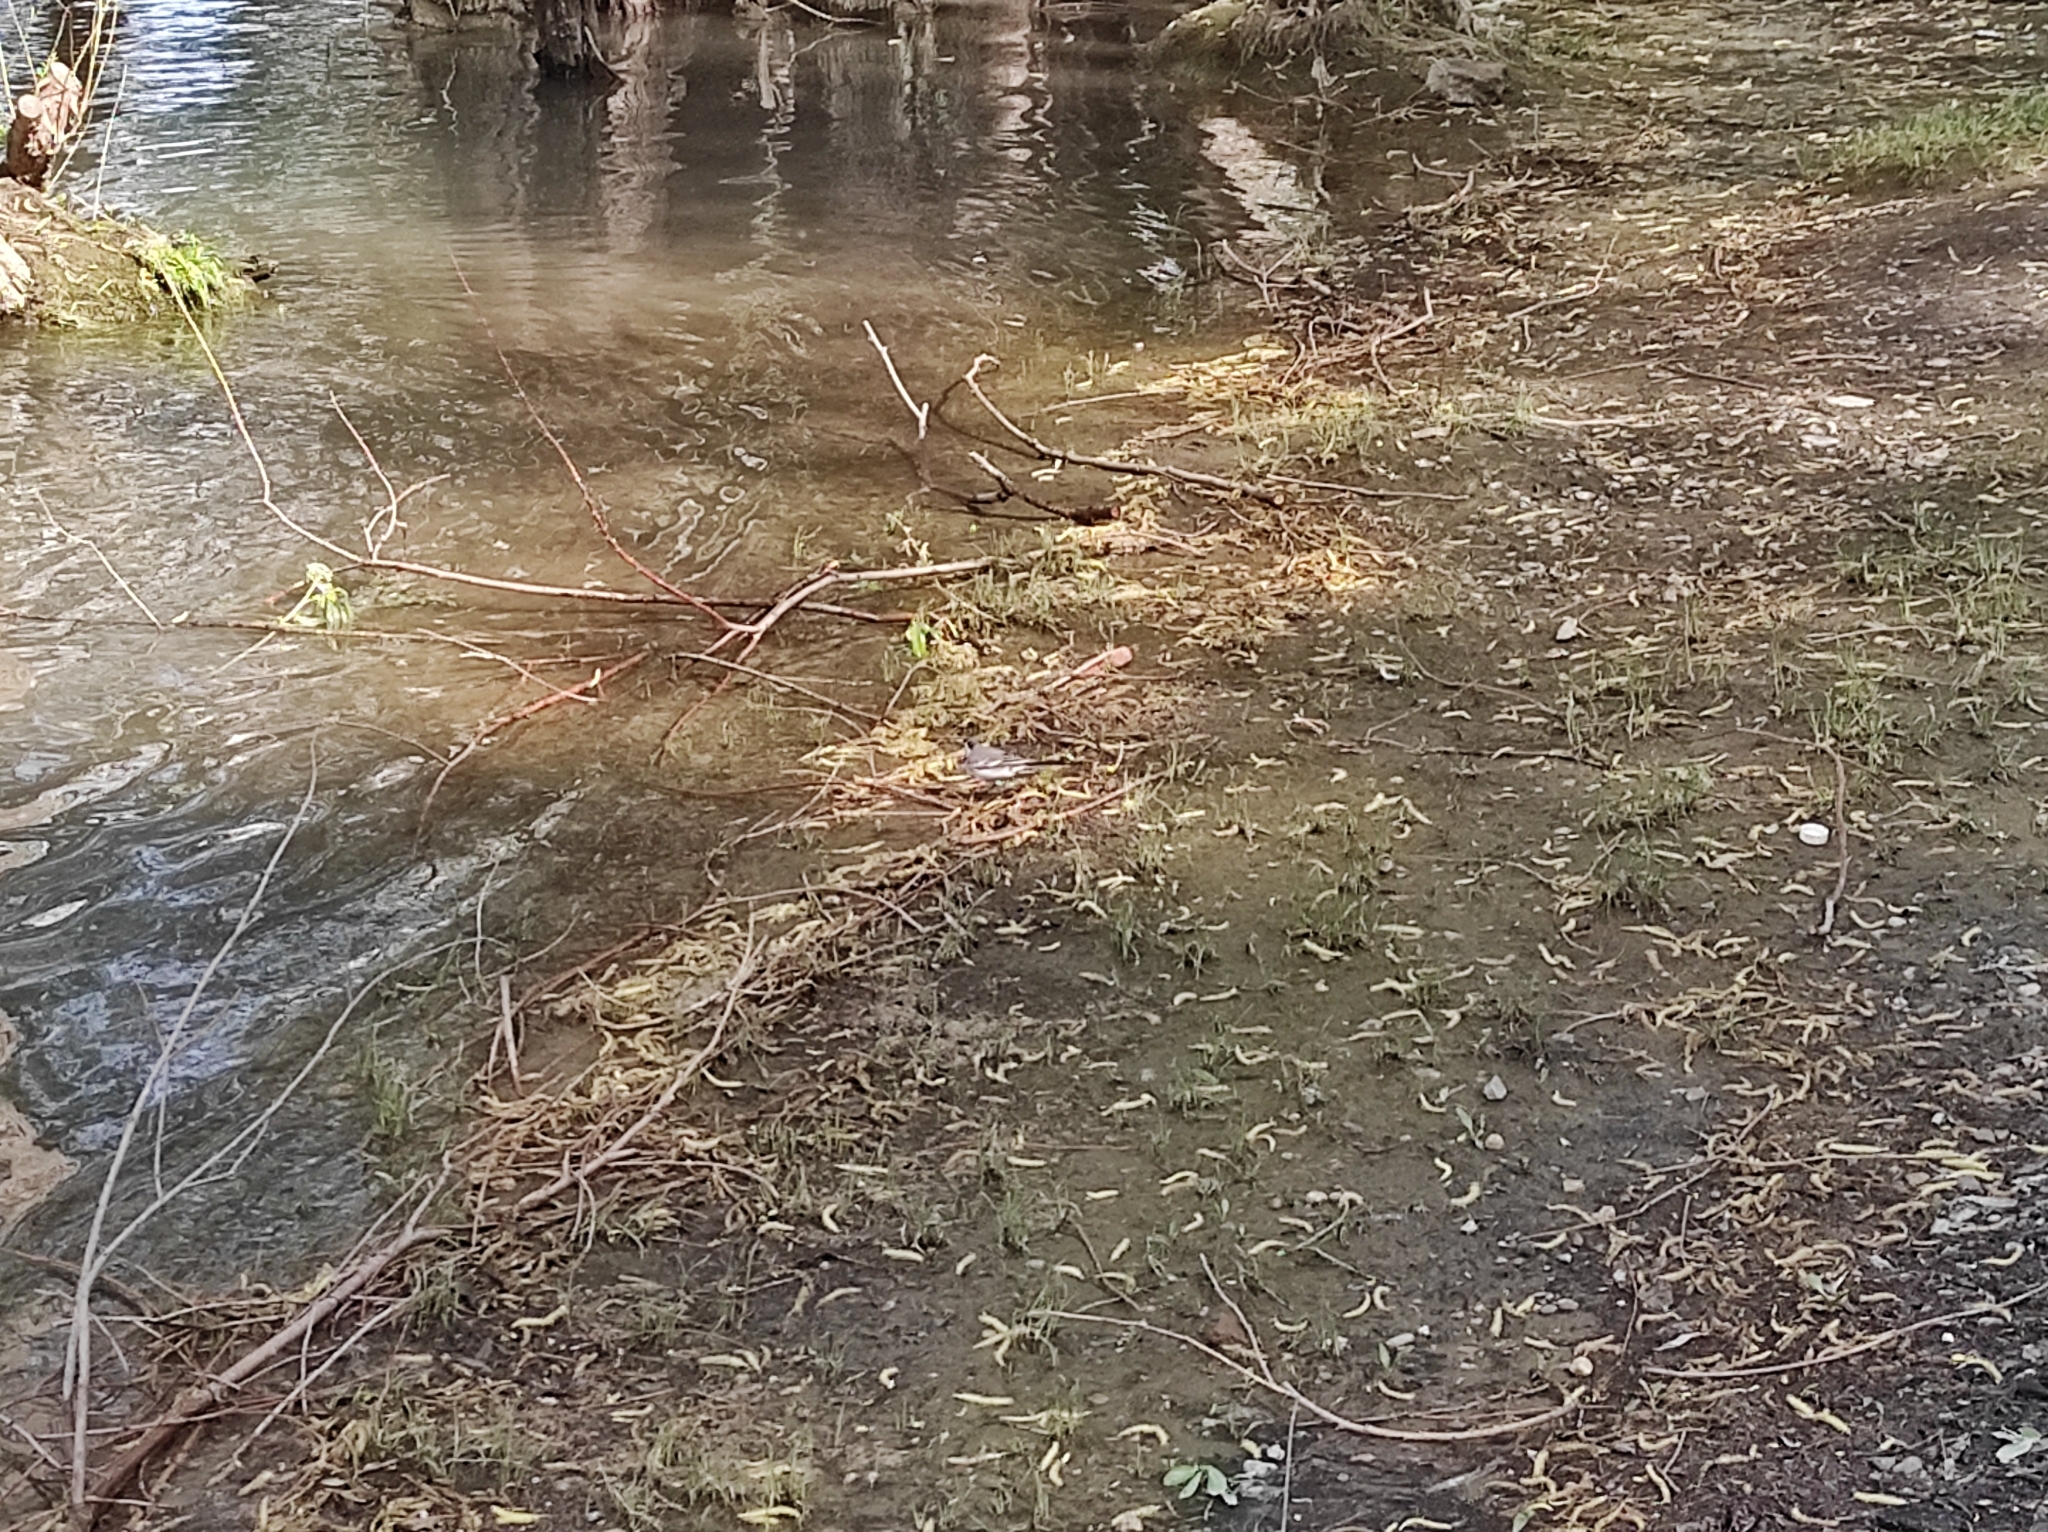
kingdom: Animalia
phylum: Chordata
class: Aves
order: Passeriformes
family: Motacillidae
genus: Motacilla
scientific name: Motacilla alba
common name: White wagtail
